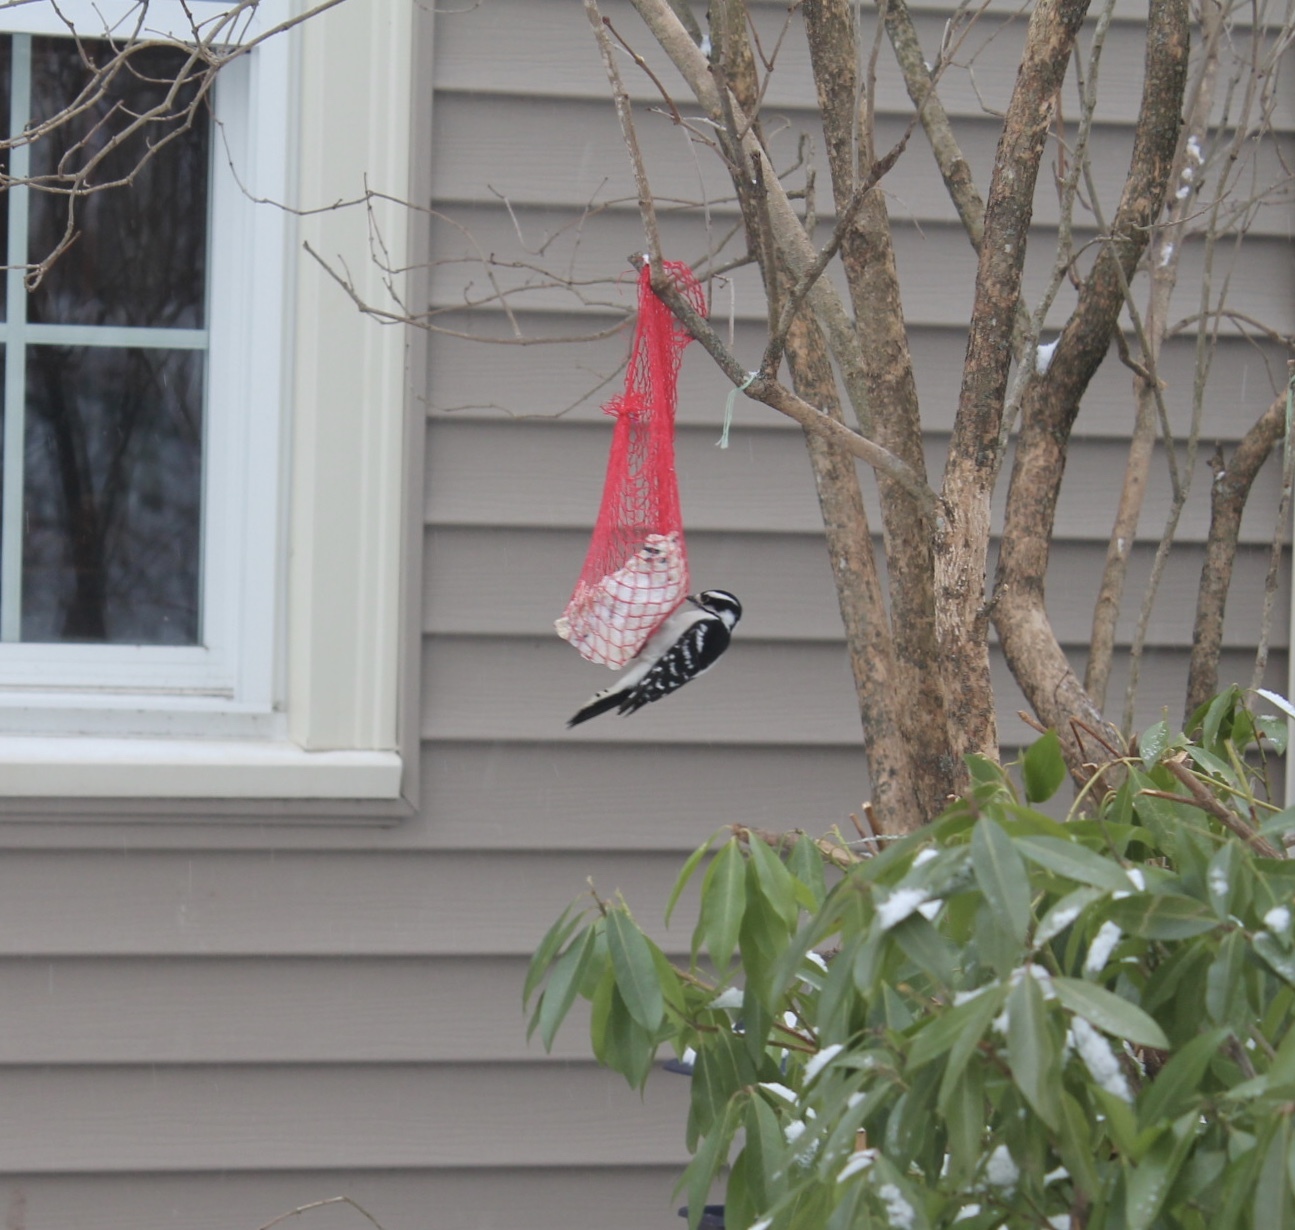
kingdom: Animalia
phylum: Chordata
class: Aves
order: Piciformes
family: Picidae
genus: Dryobates
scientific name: Dryobates pubescens
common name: Downy woodpecker
